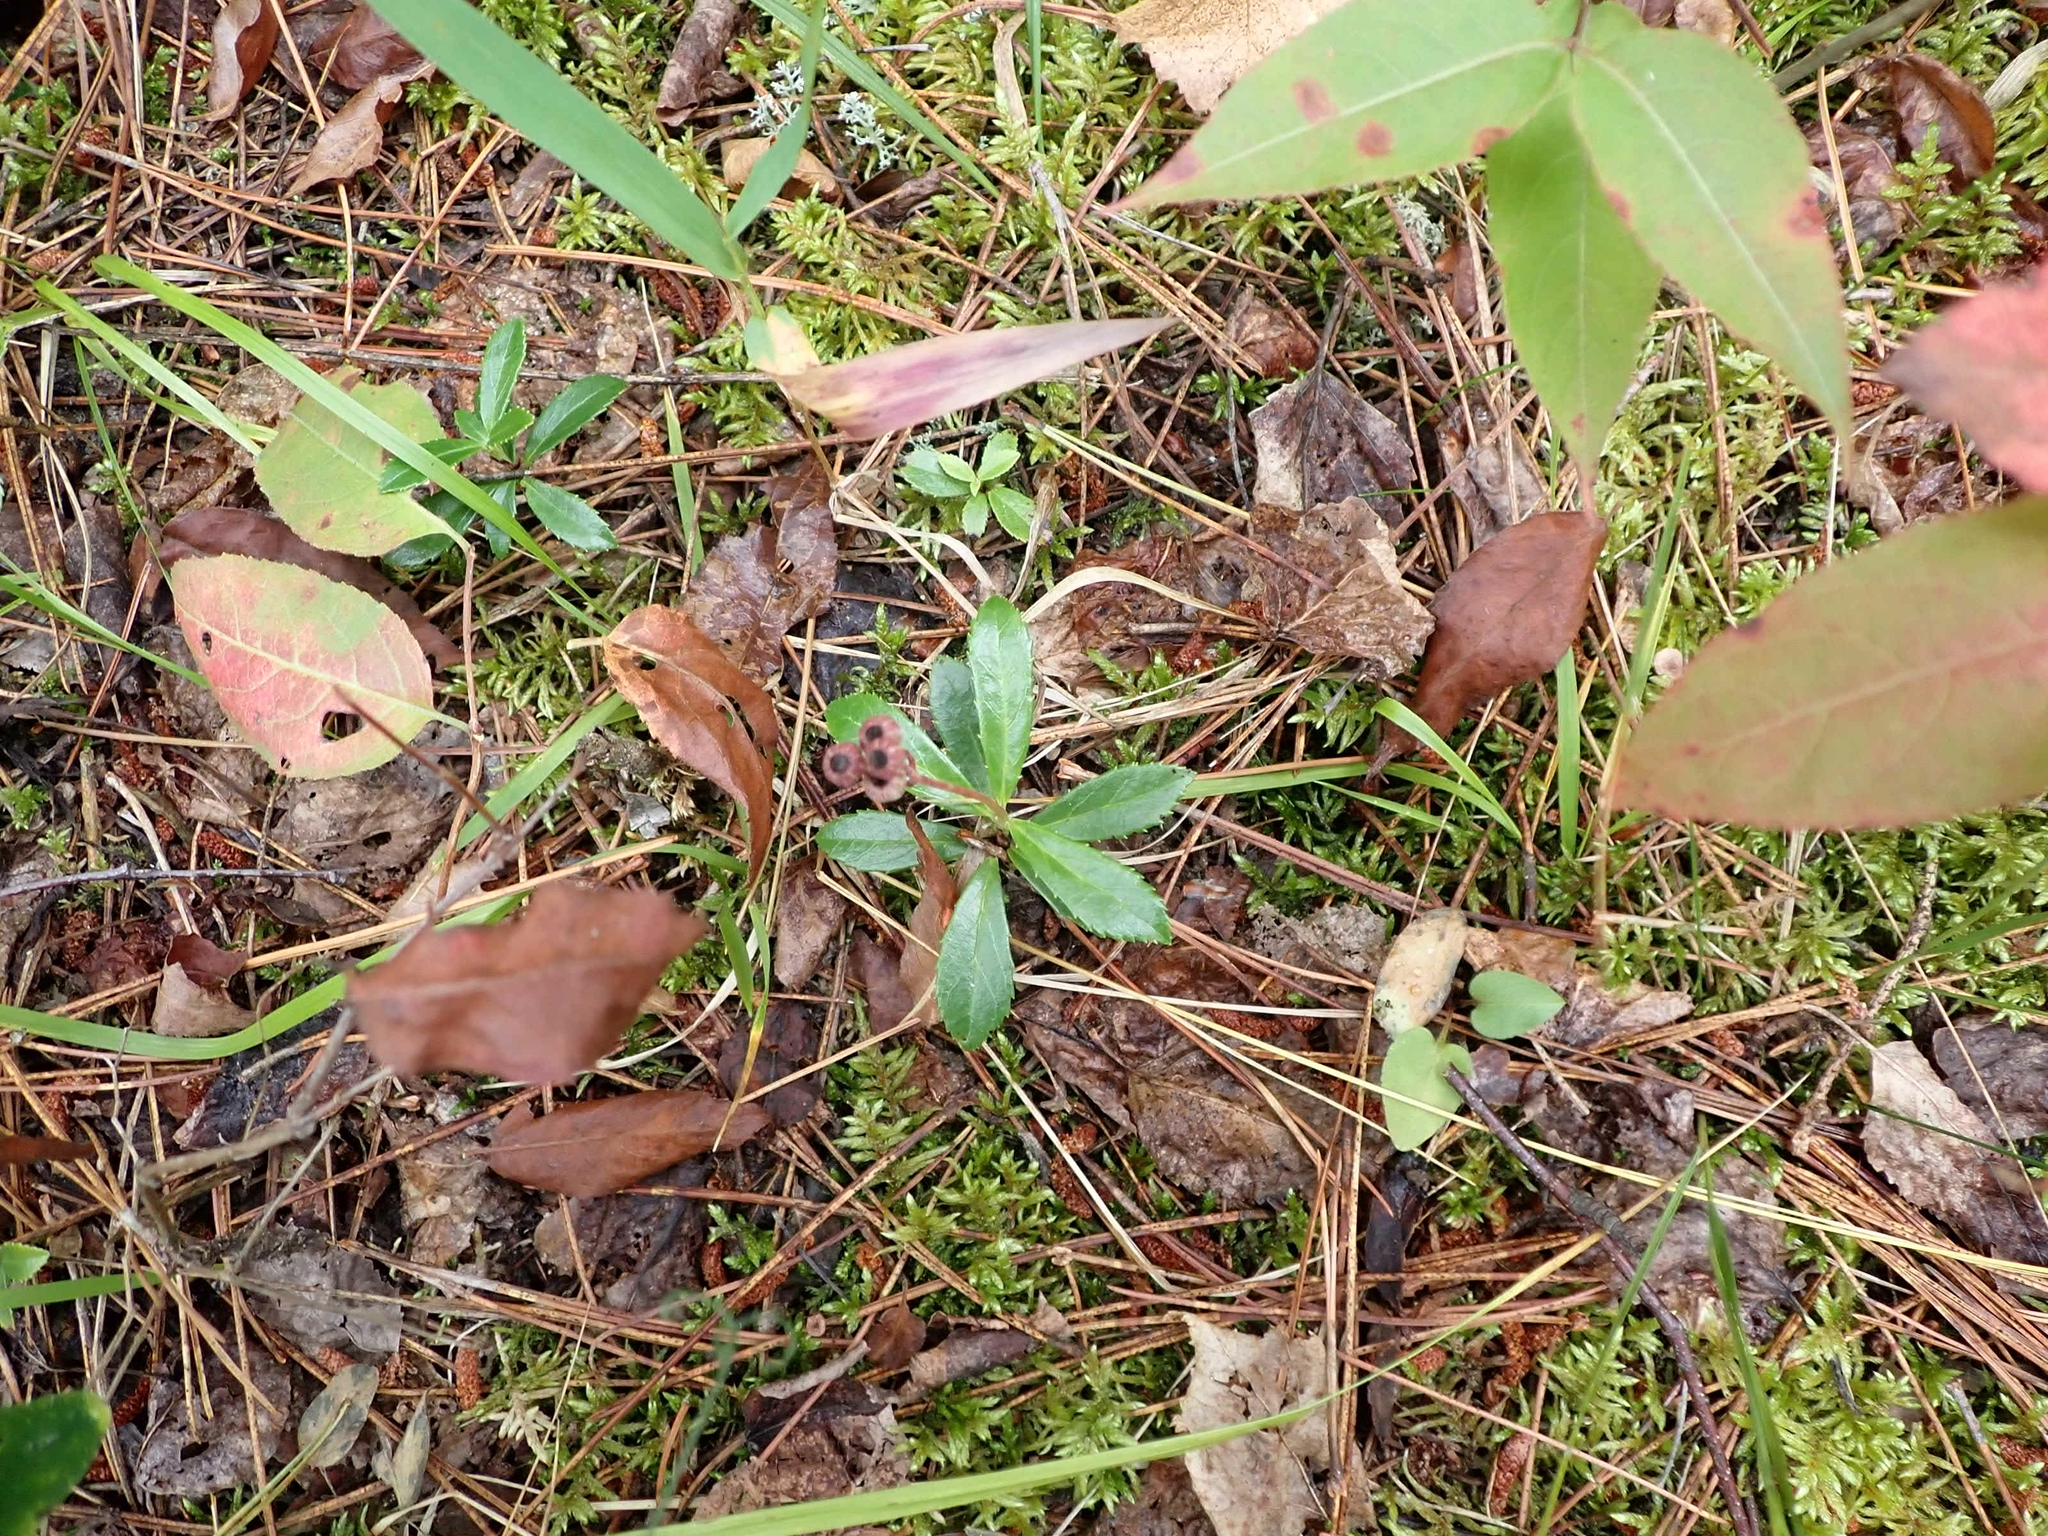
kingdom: Plantae
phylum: Tracheophyta
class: Magnoliopsida
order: Ericales
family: Ericaceae
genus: Chimaphila
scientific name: Chimaphila umbellata
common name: Pipsissewa
